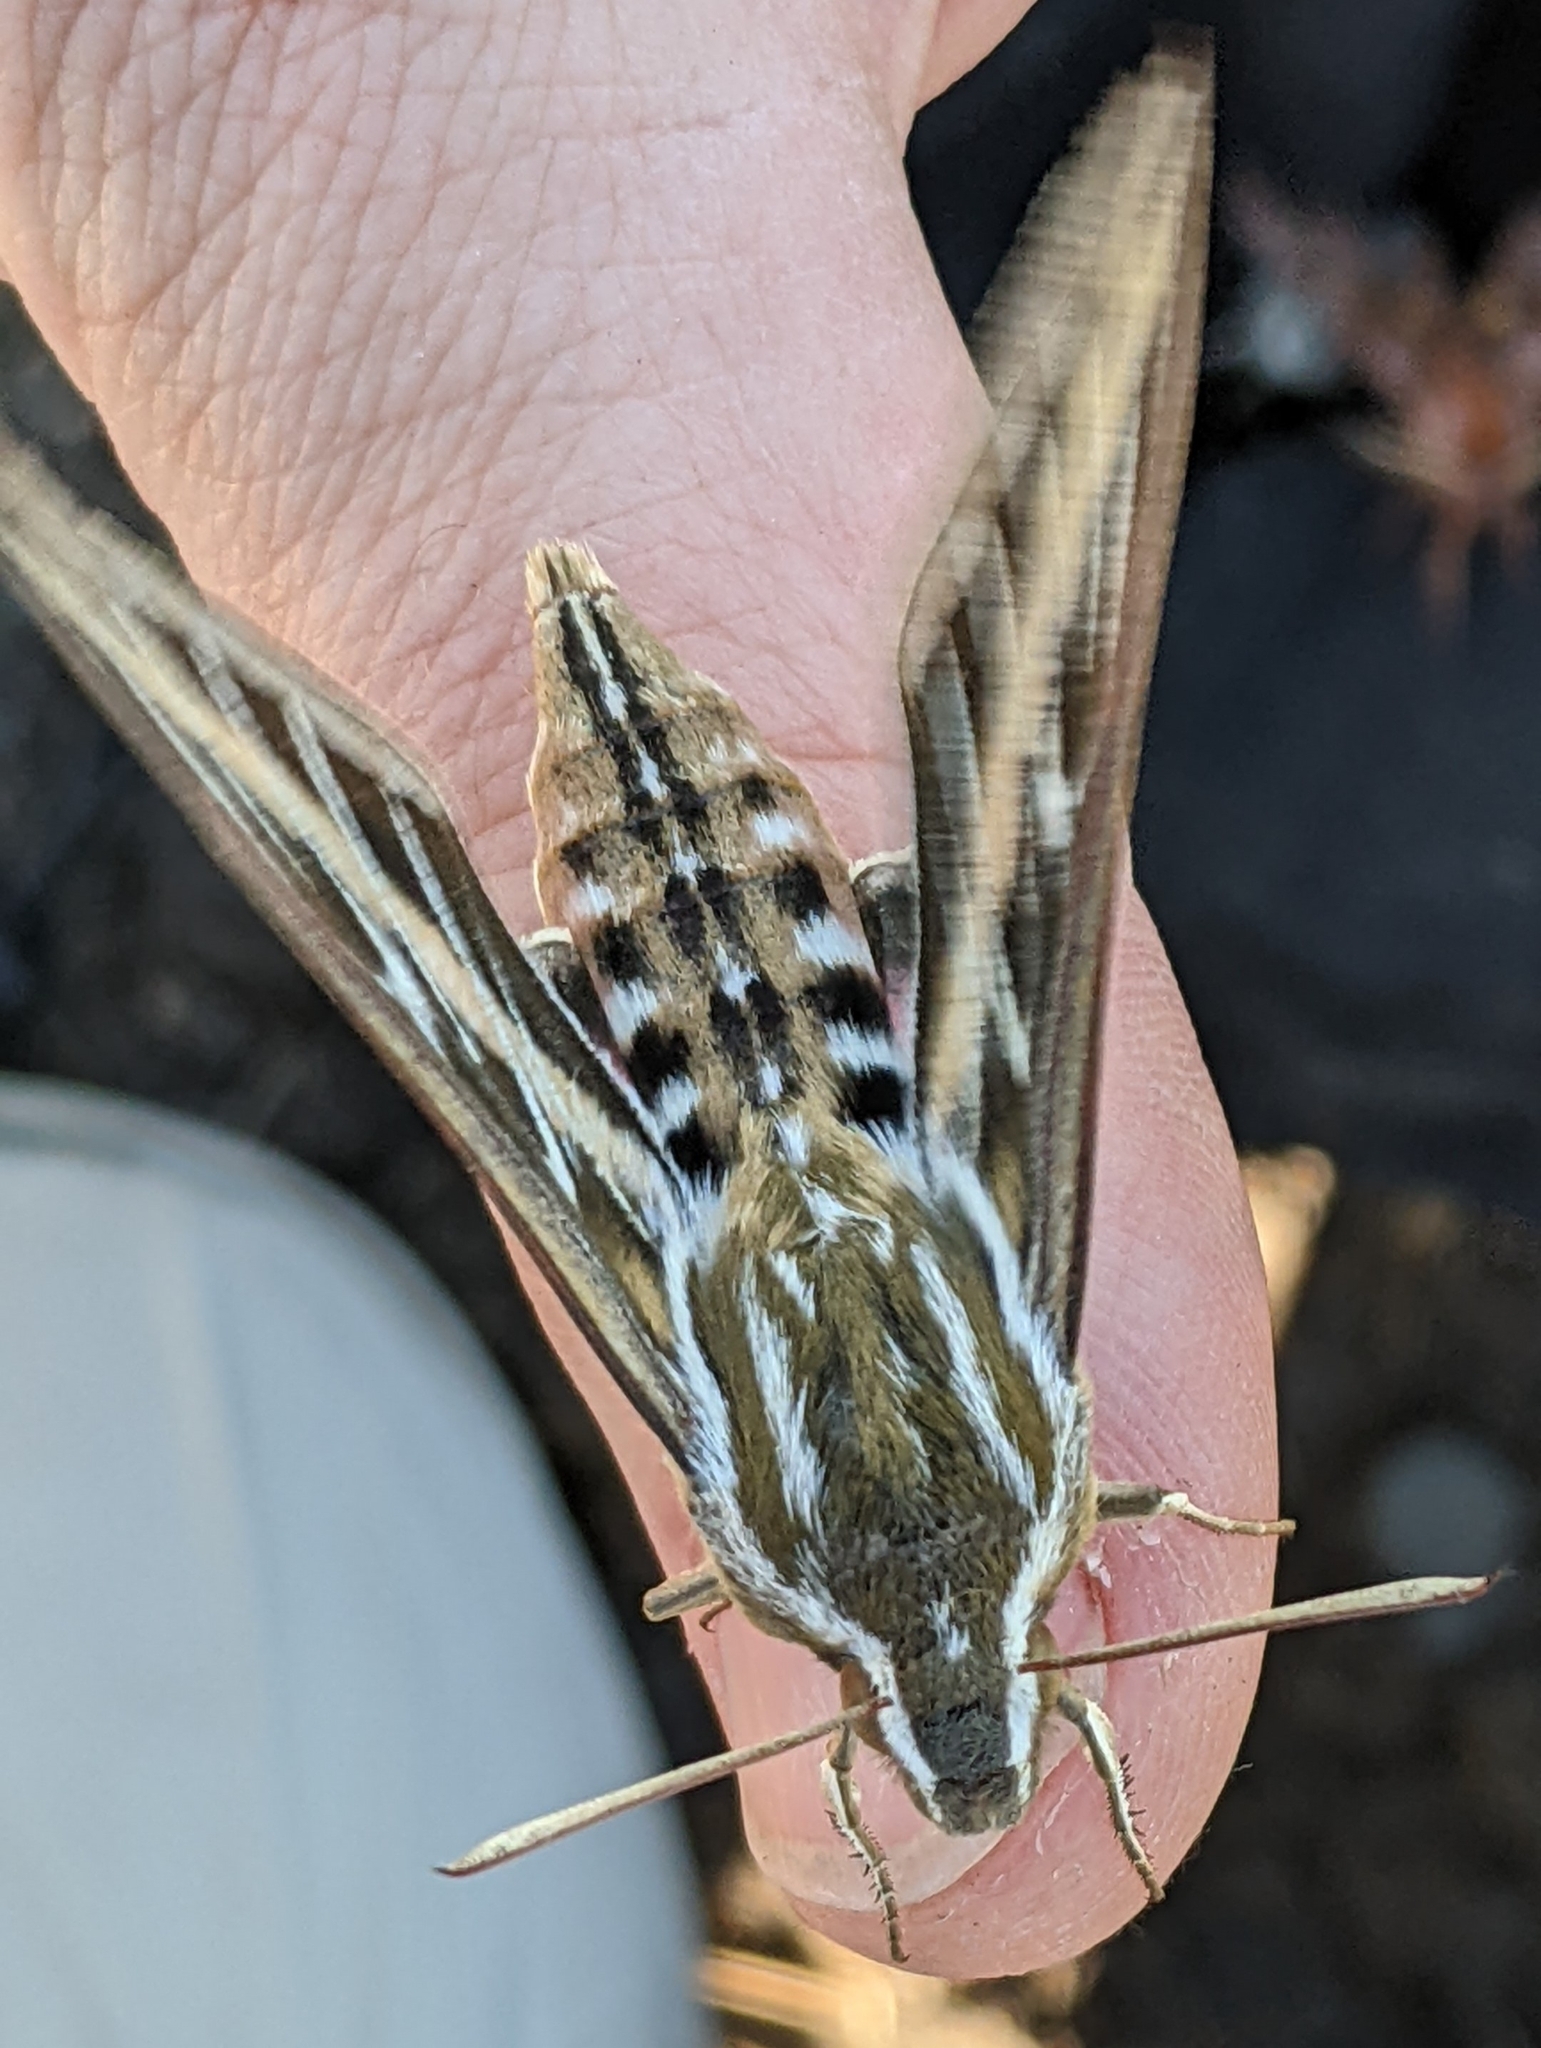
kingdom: Animalia
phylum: Arthropoda
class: Insecta
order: Lepidoptera
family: Sphingidae
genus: Hyles
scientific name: Hyles lineata
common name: White-lined sphinx
